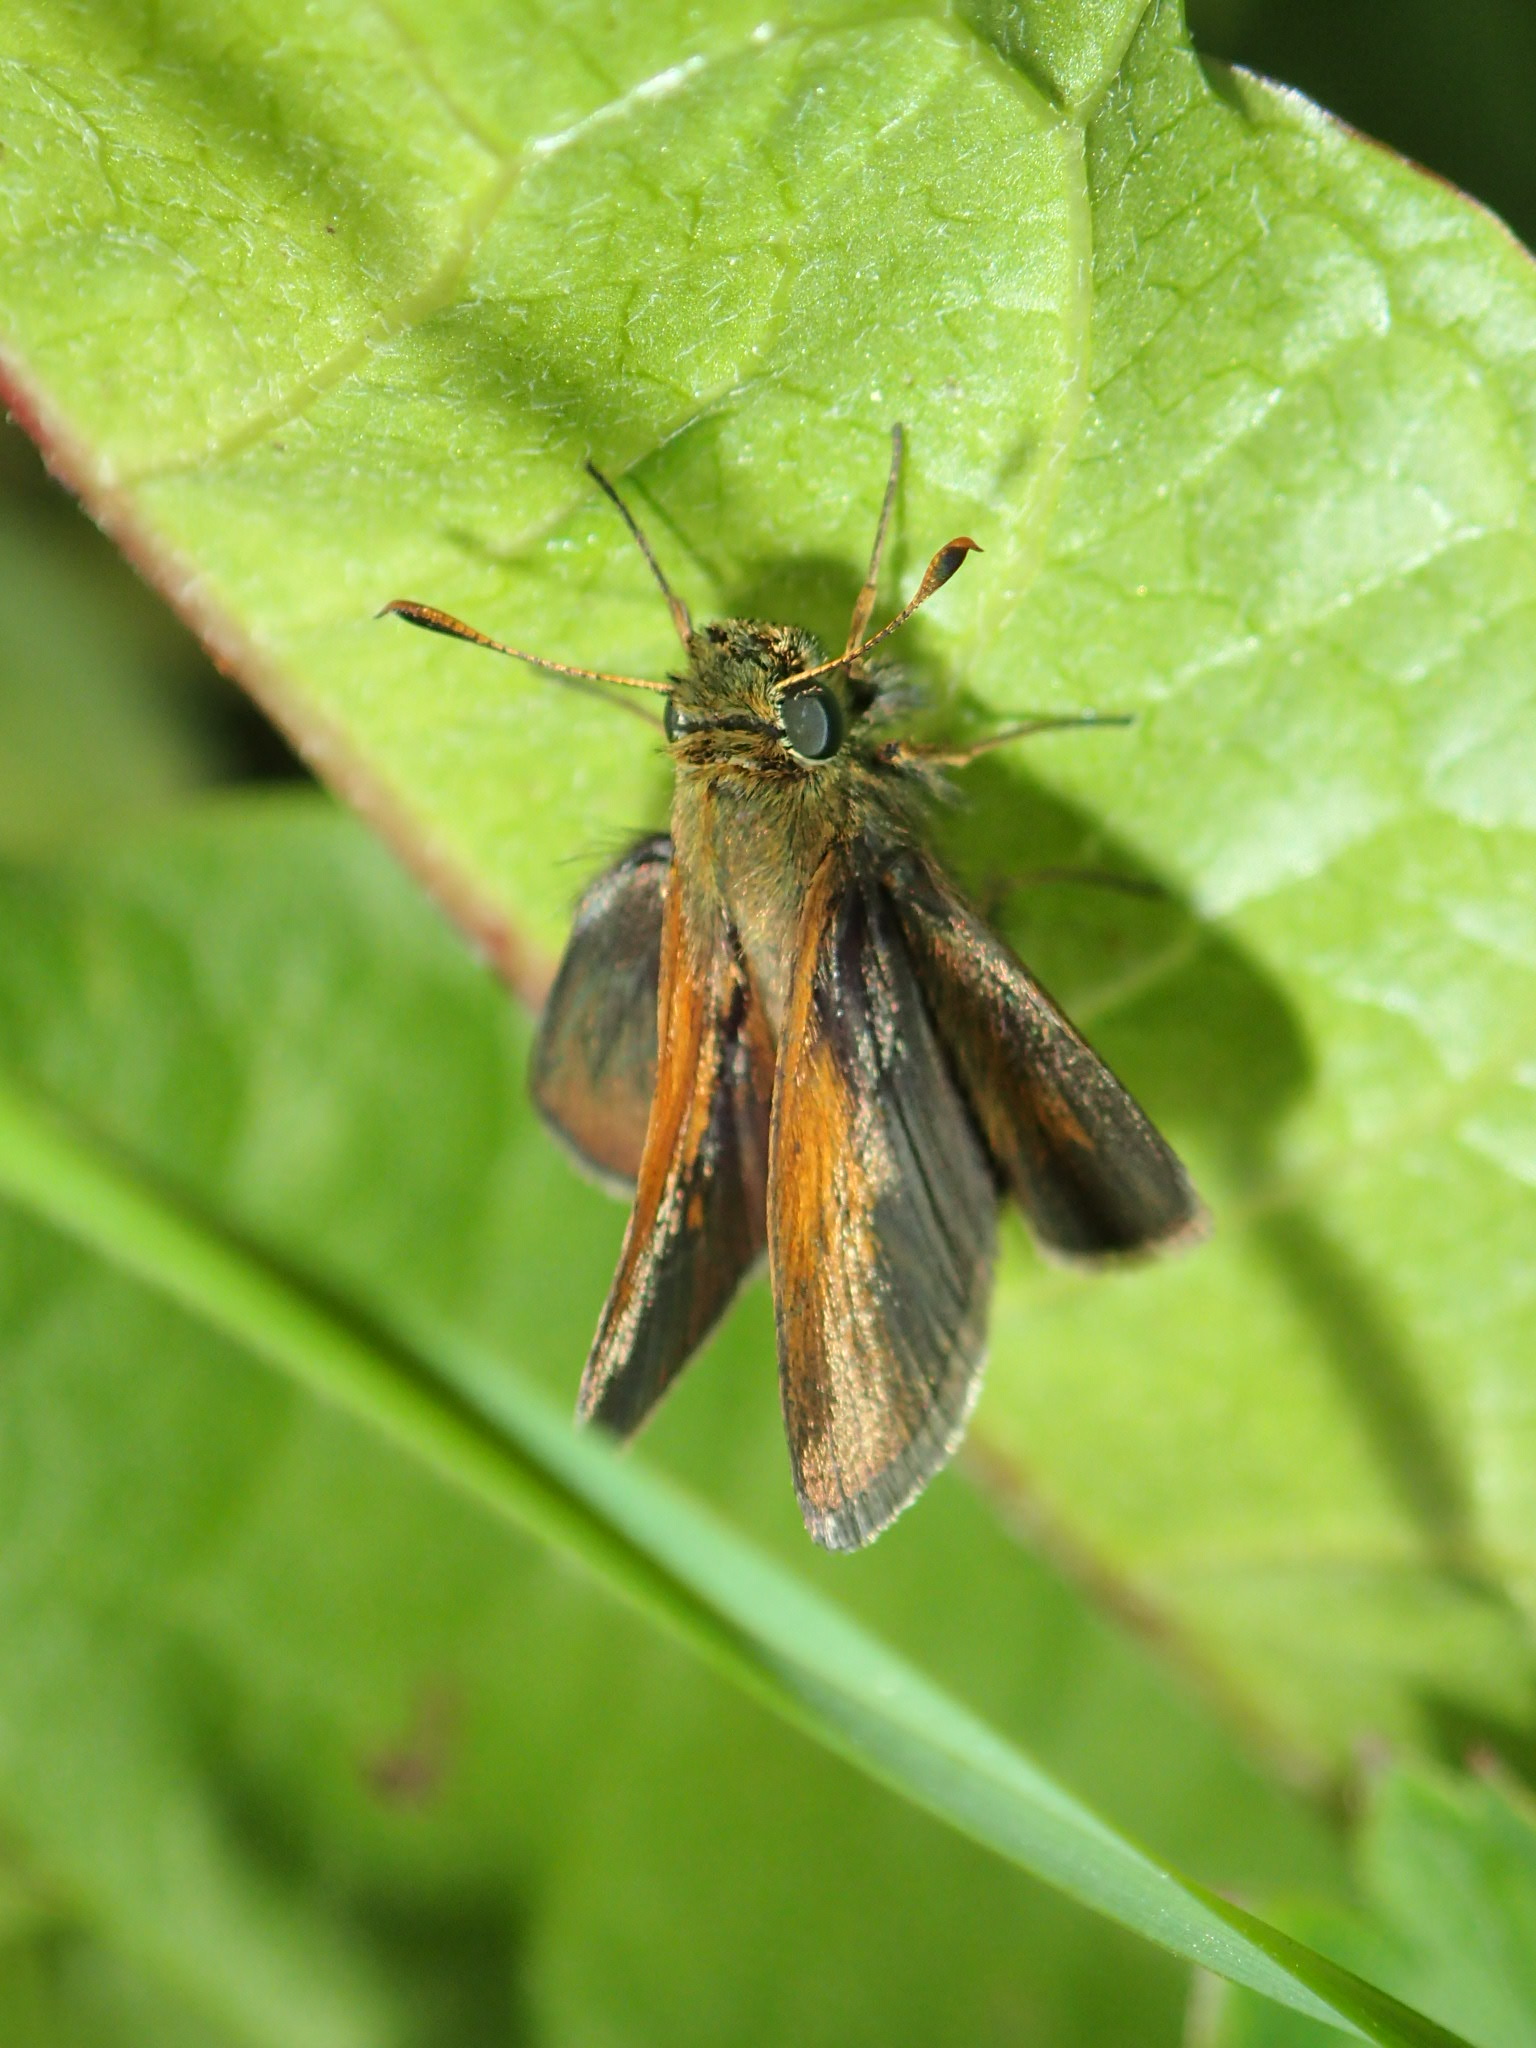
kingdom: Animalia
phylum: Arthropoda
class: Insecta
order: Lepidoptera
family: Hesperiidae
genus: Polites
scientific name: Polites themistocles
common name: Tawny-edged skipper
